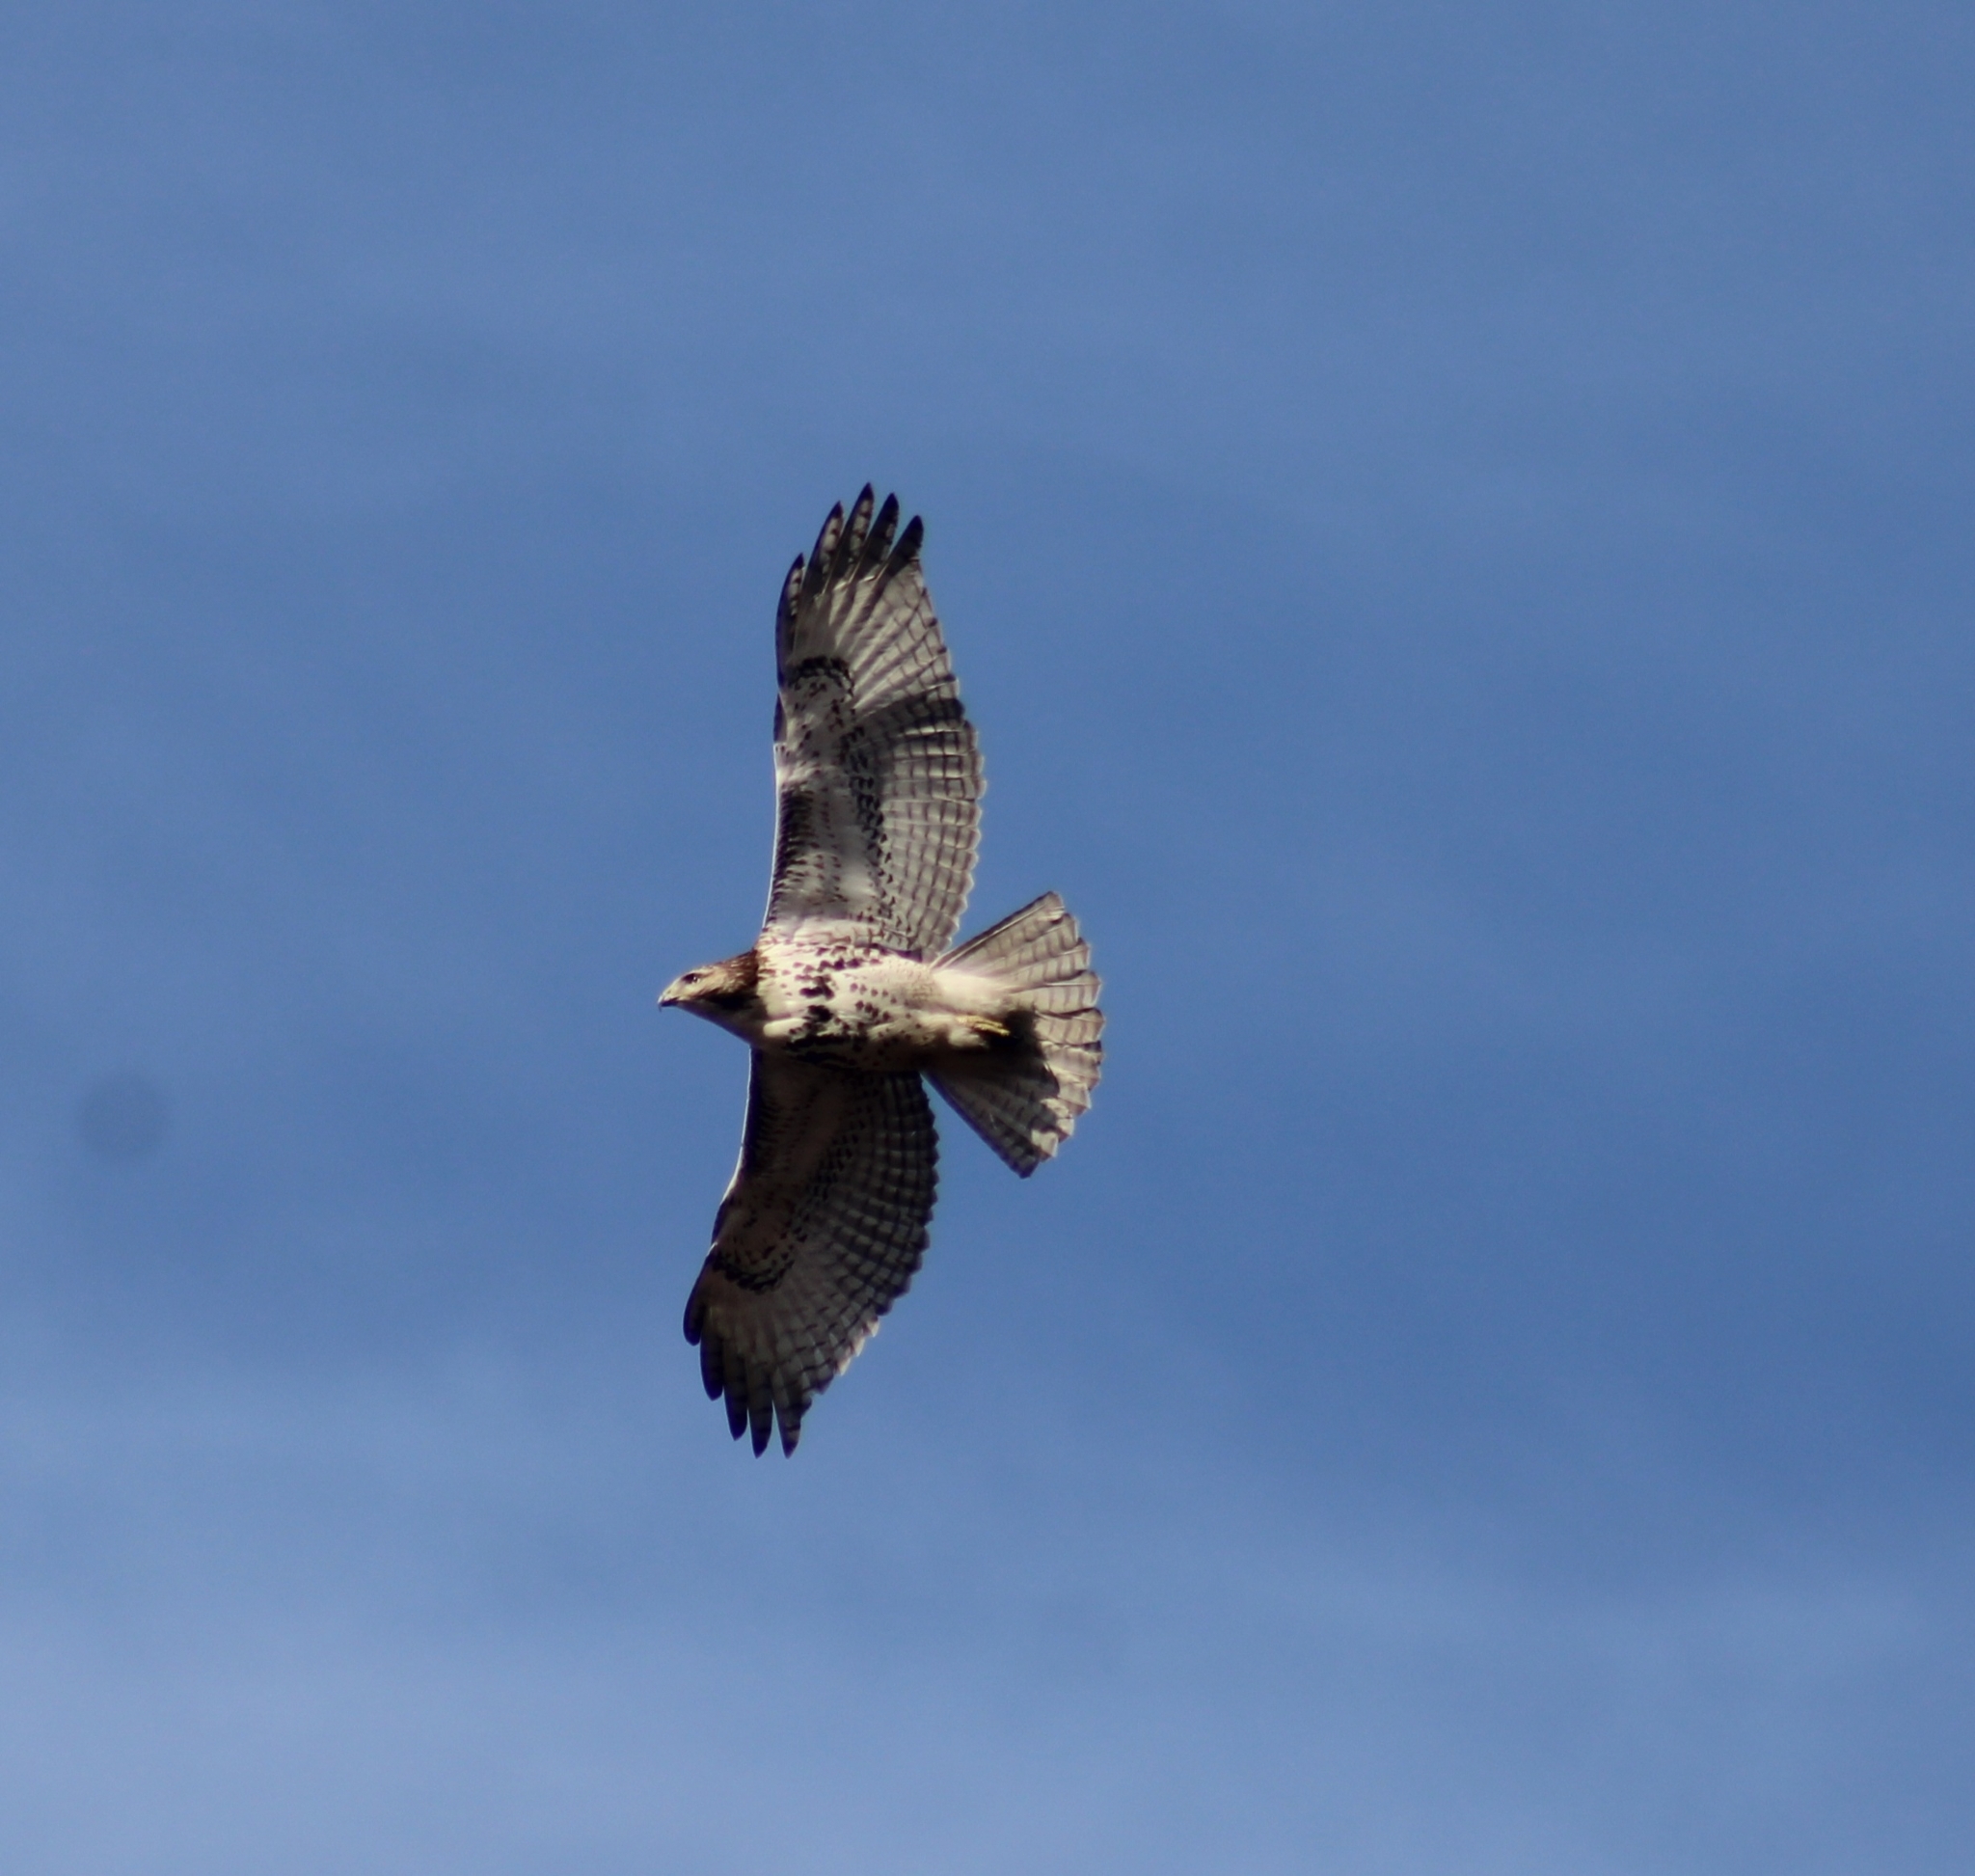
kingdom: Animalia
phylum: Chordata
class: Aves
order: Accipitriformes
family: Accipitridae
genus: Buteo
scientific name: Buteo jamaicensis
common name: Red-tailed hawk
